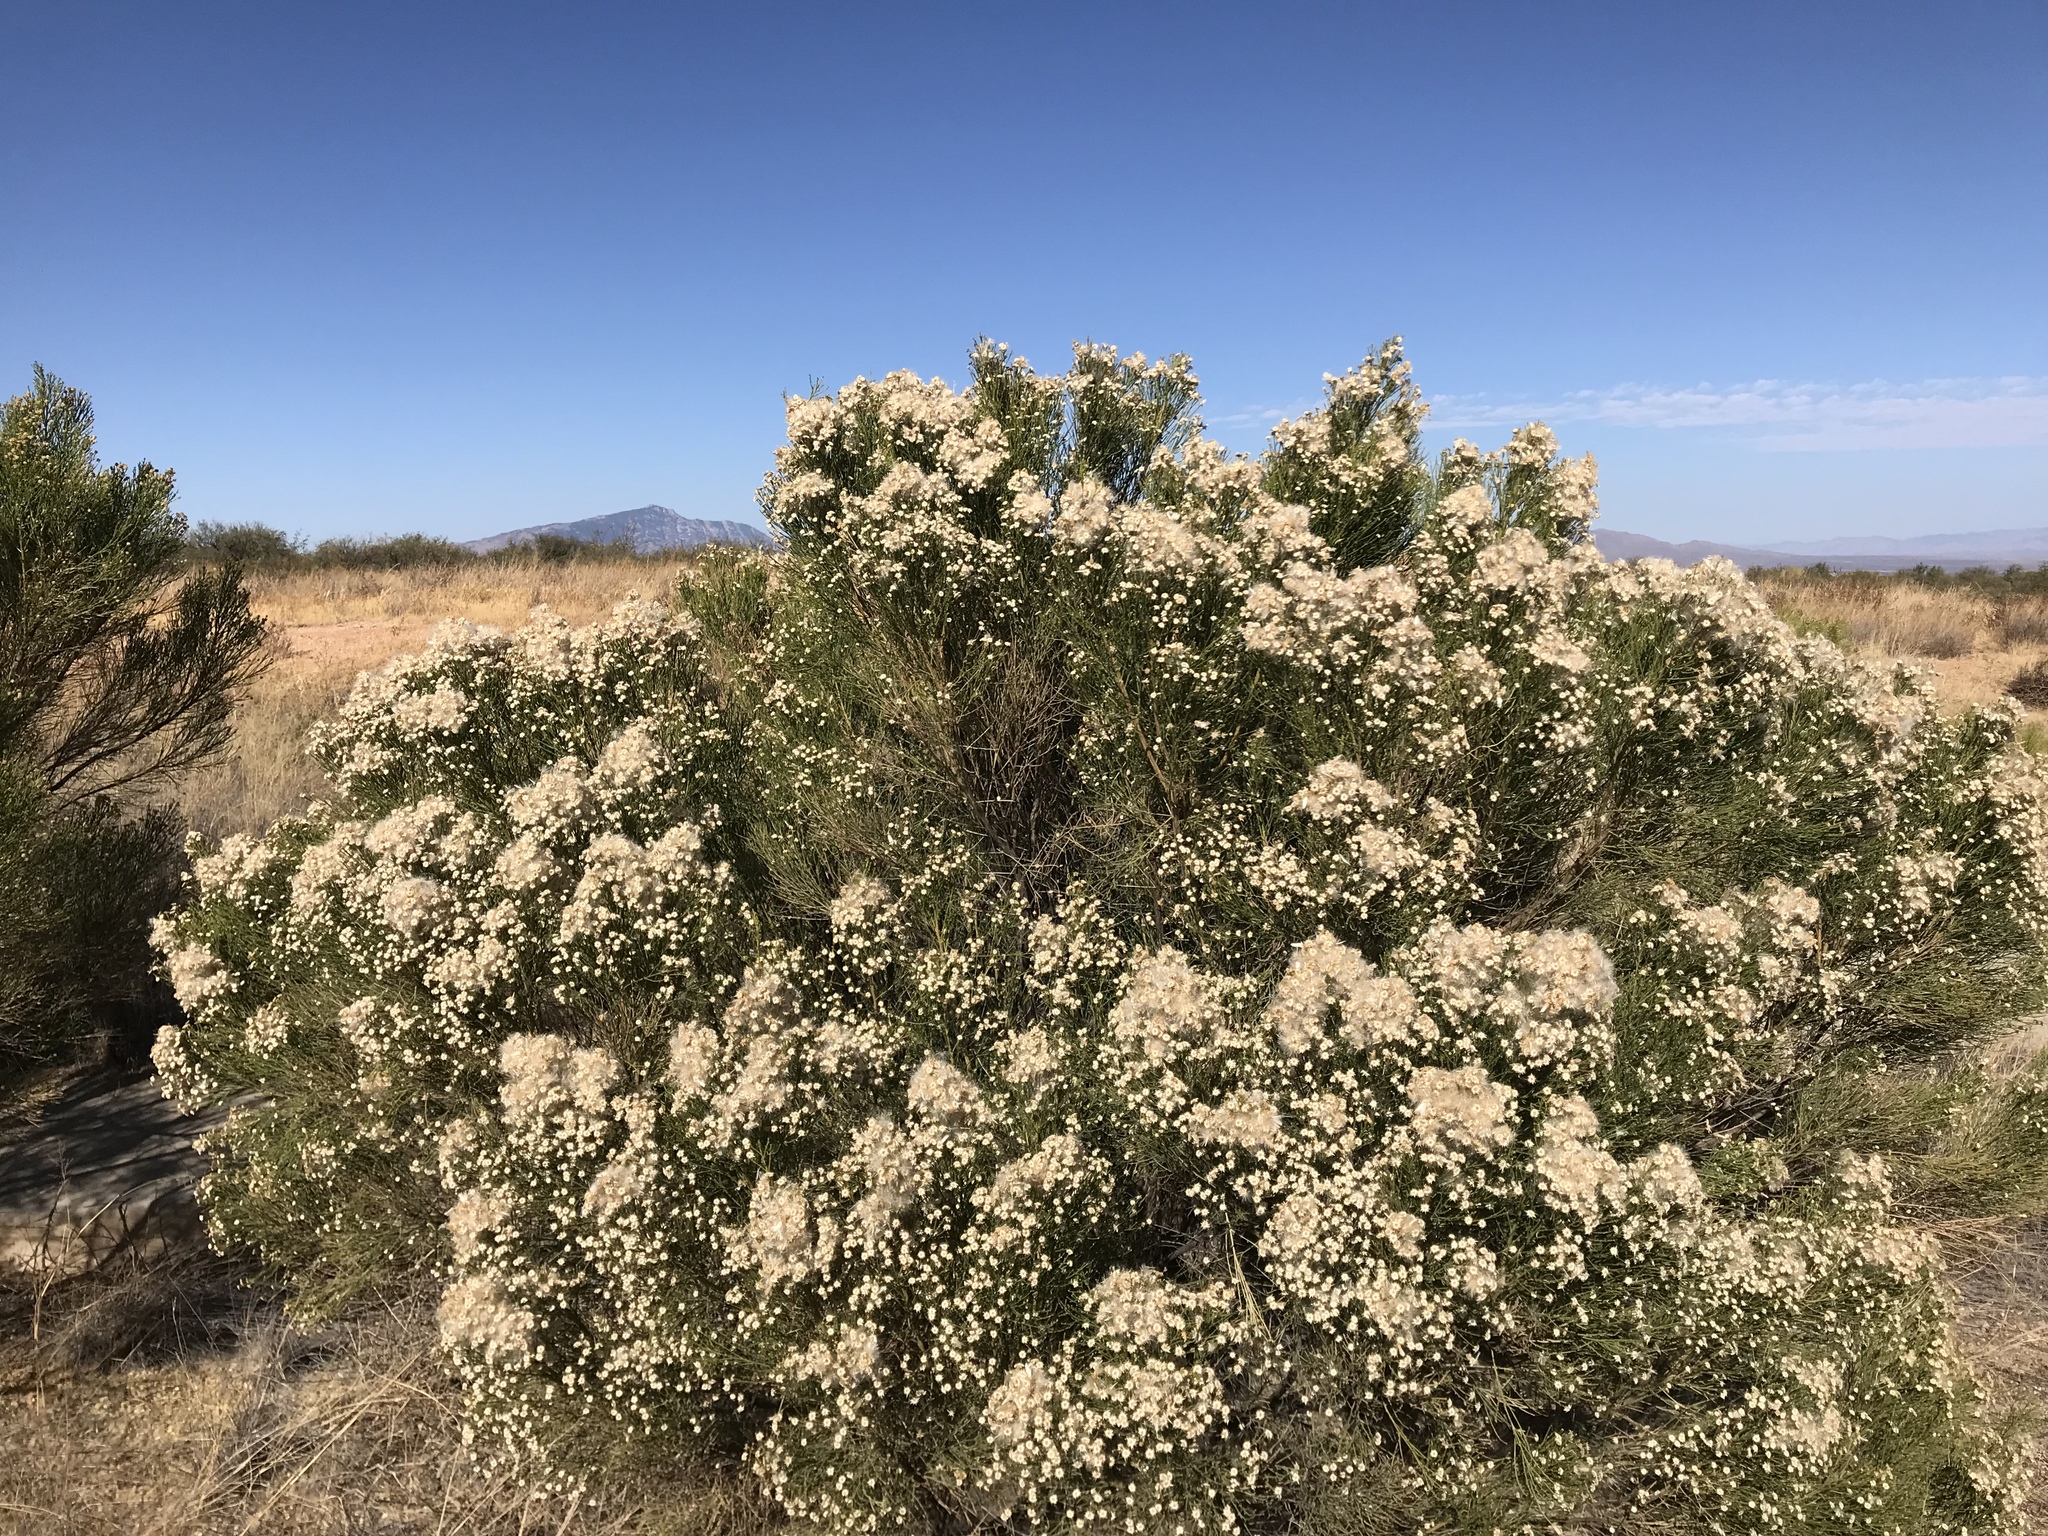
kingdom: Plantae
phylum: Tracheophyta
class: Magnoliopsida
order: Asterales
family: Asteraceae
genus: Baccharis
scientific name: Baccharis sarothroides
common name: Desert-broom
